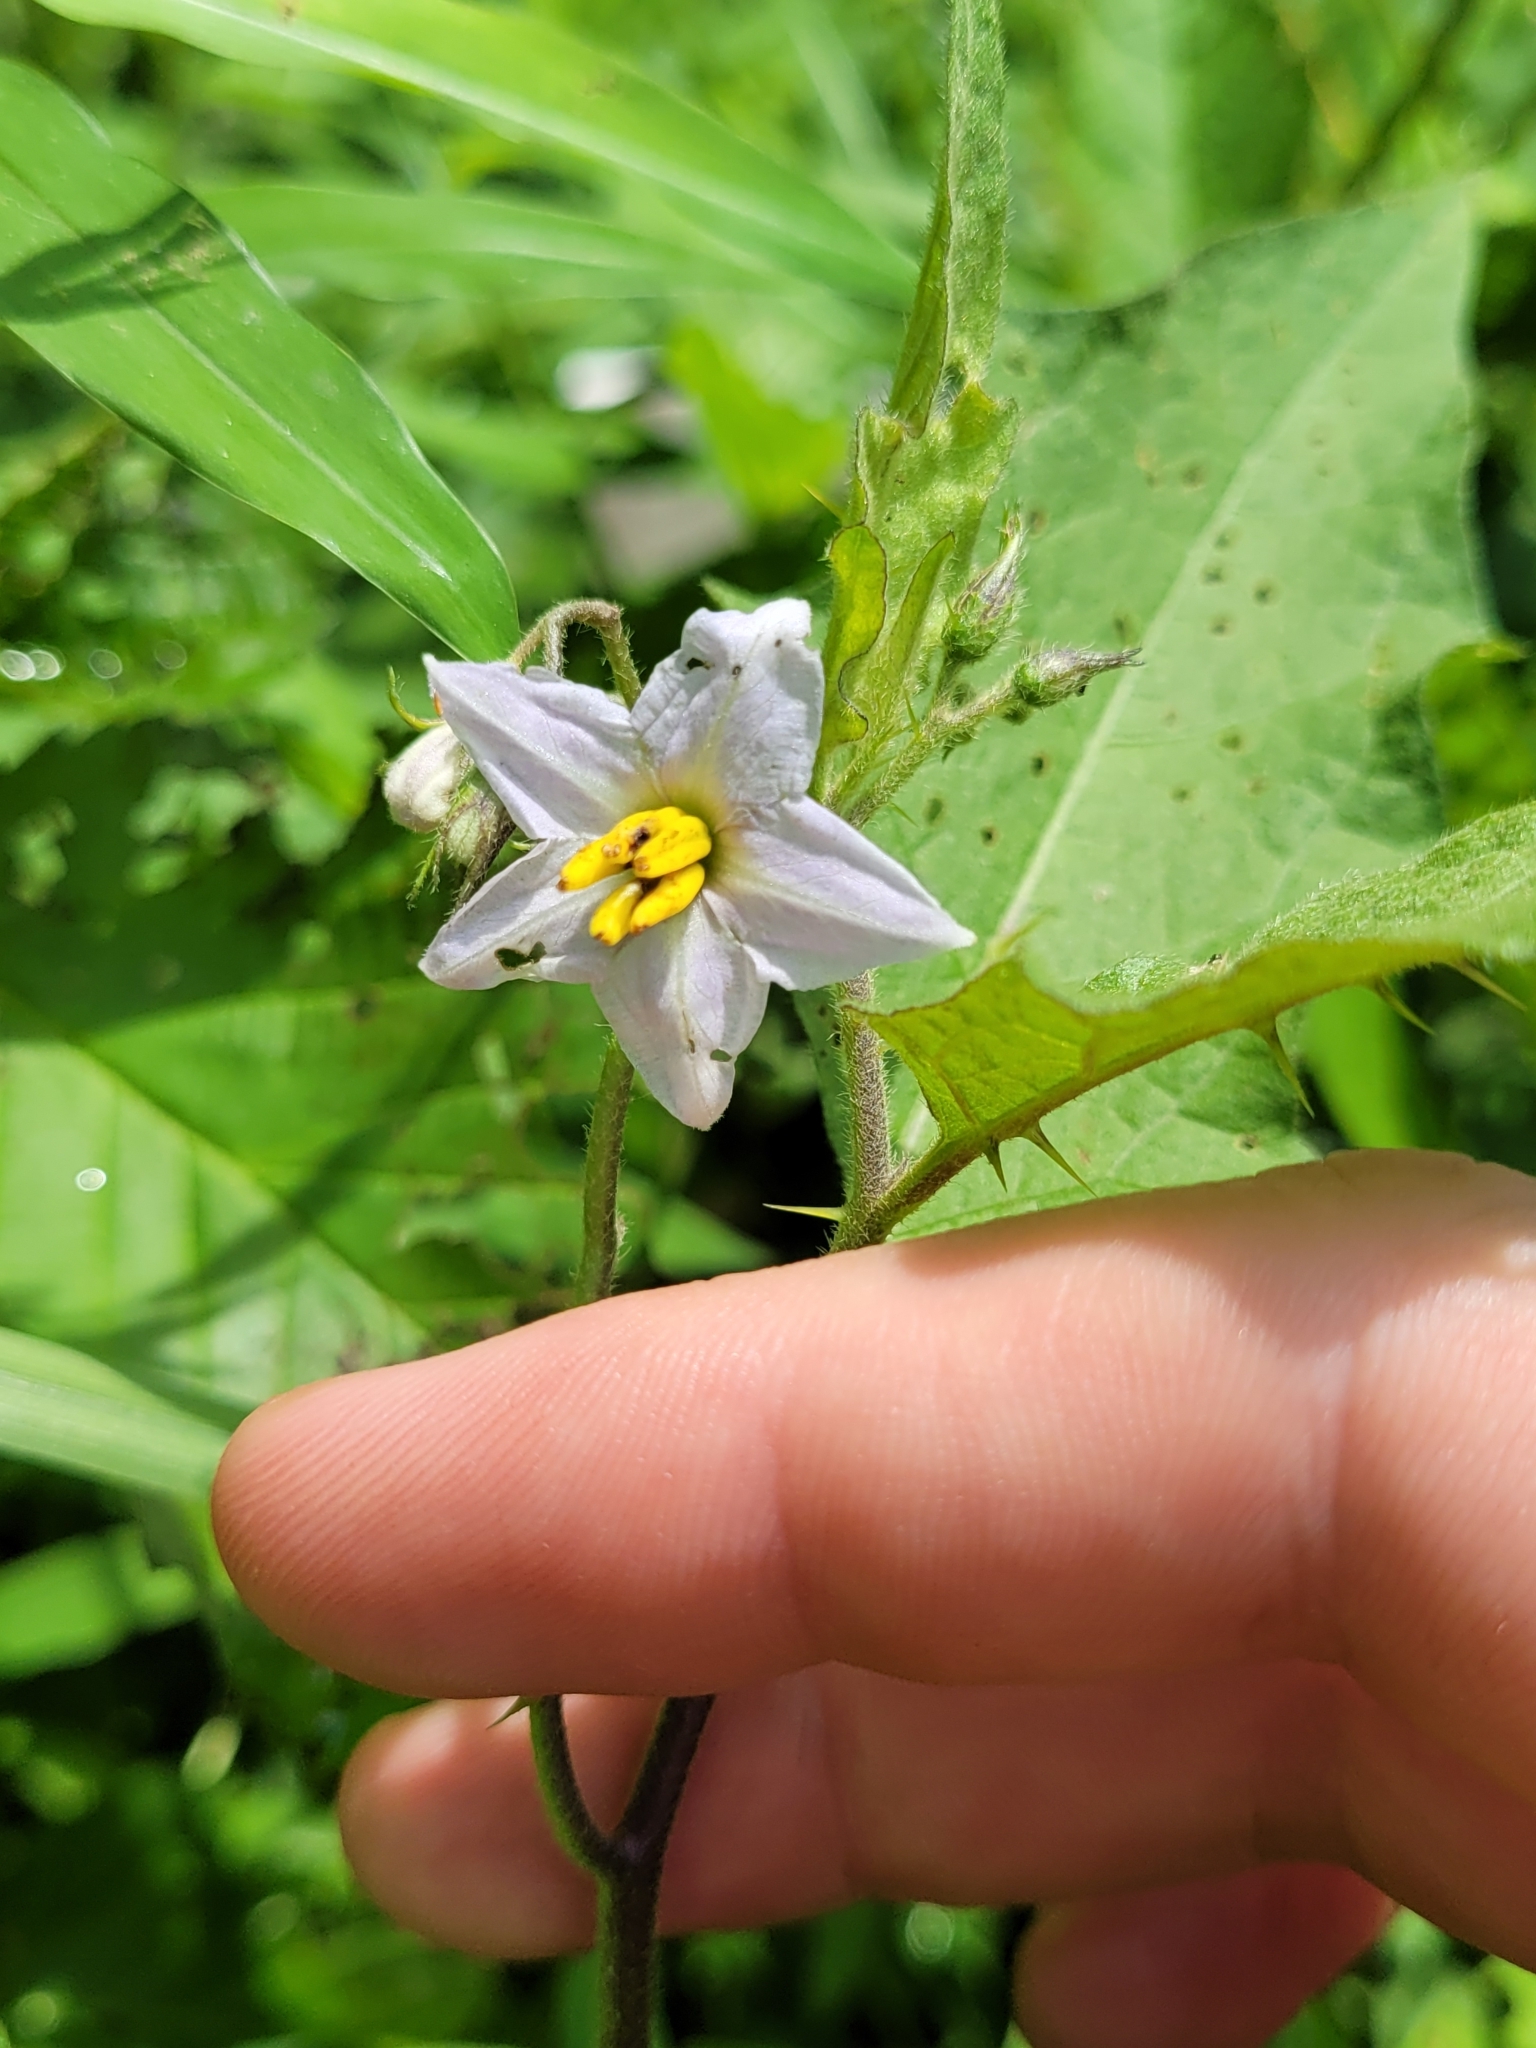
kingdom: Plantae
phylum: Tracheophyta
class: Magnoliopsida
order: Solanales
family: Solanaceae
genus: Solanum
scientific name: Solanum carolinense
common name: Horse-nettle
